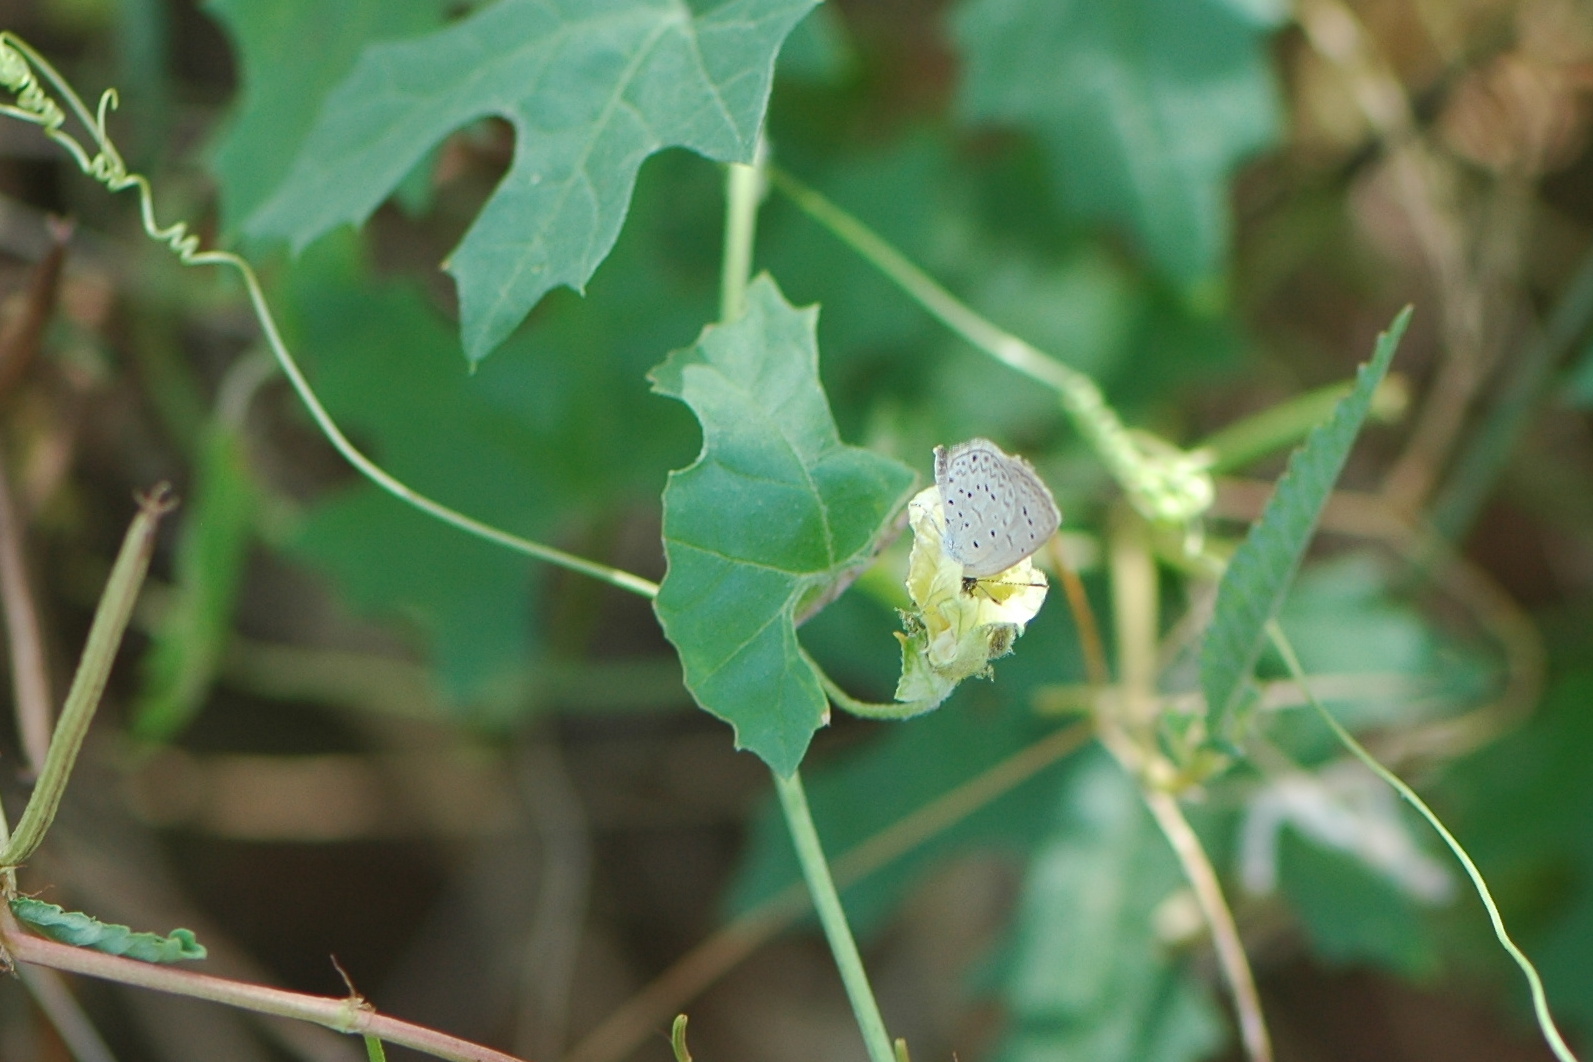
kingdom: Animalia
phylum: Arthropoda
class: Insecta
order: Lepidoptera
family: Lycaenidae
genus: Zizeeria
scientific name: Zizeeria knysna
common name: African grass blue
